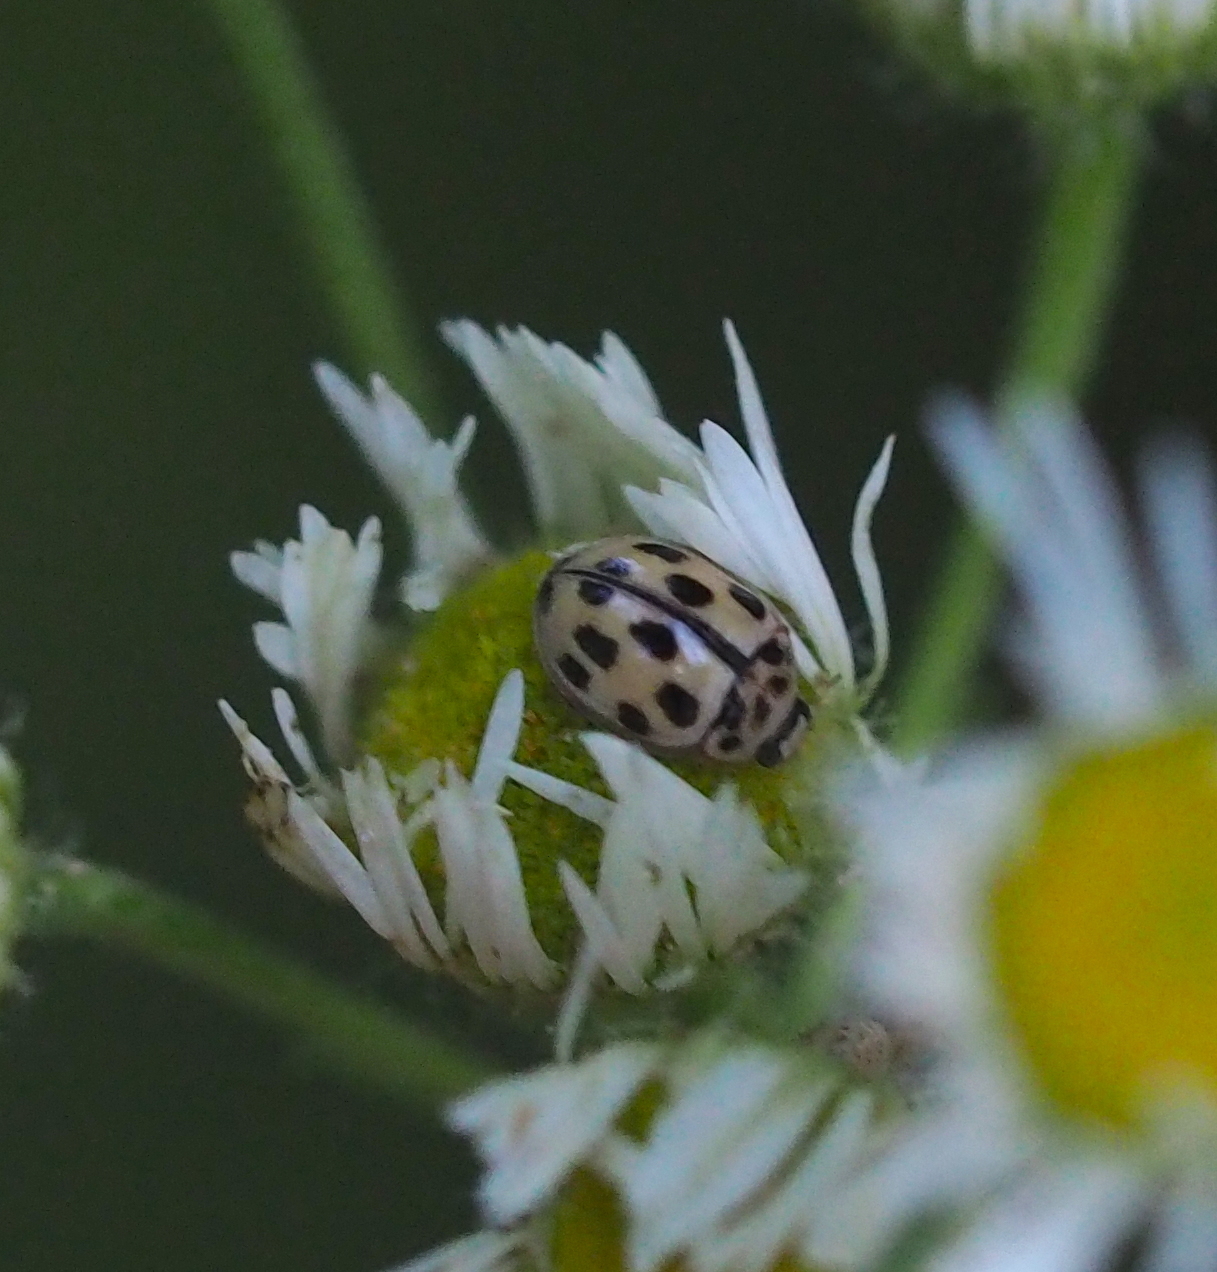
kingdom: Animalia
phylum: Arthropoda
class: Insecta
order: Coleoptera
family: Coccinellidae
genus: Propylaea
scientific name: Propylaea quatuordecimpunctata
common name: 14-spotted ladybird beetle
